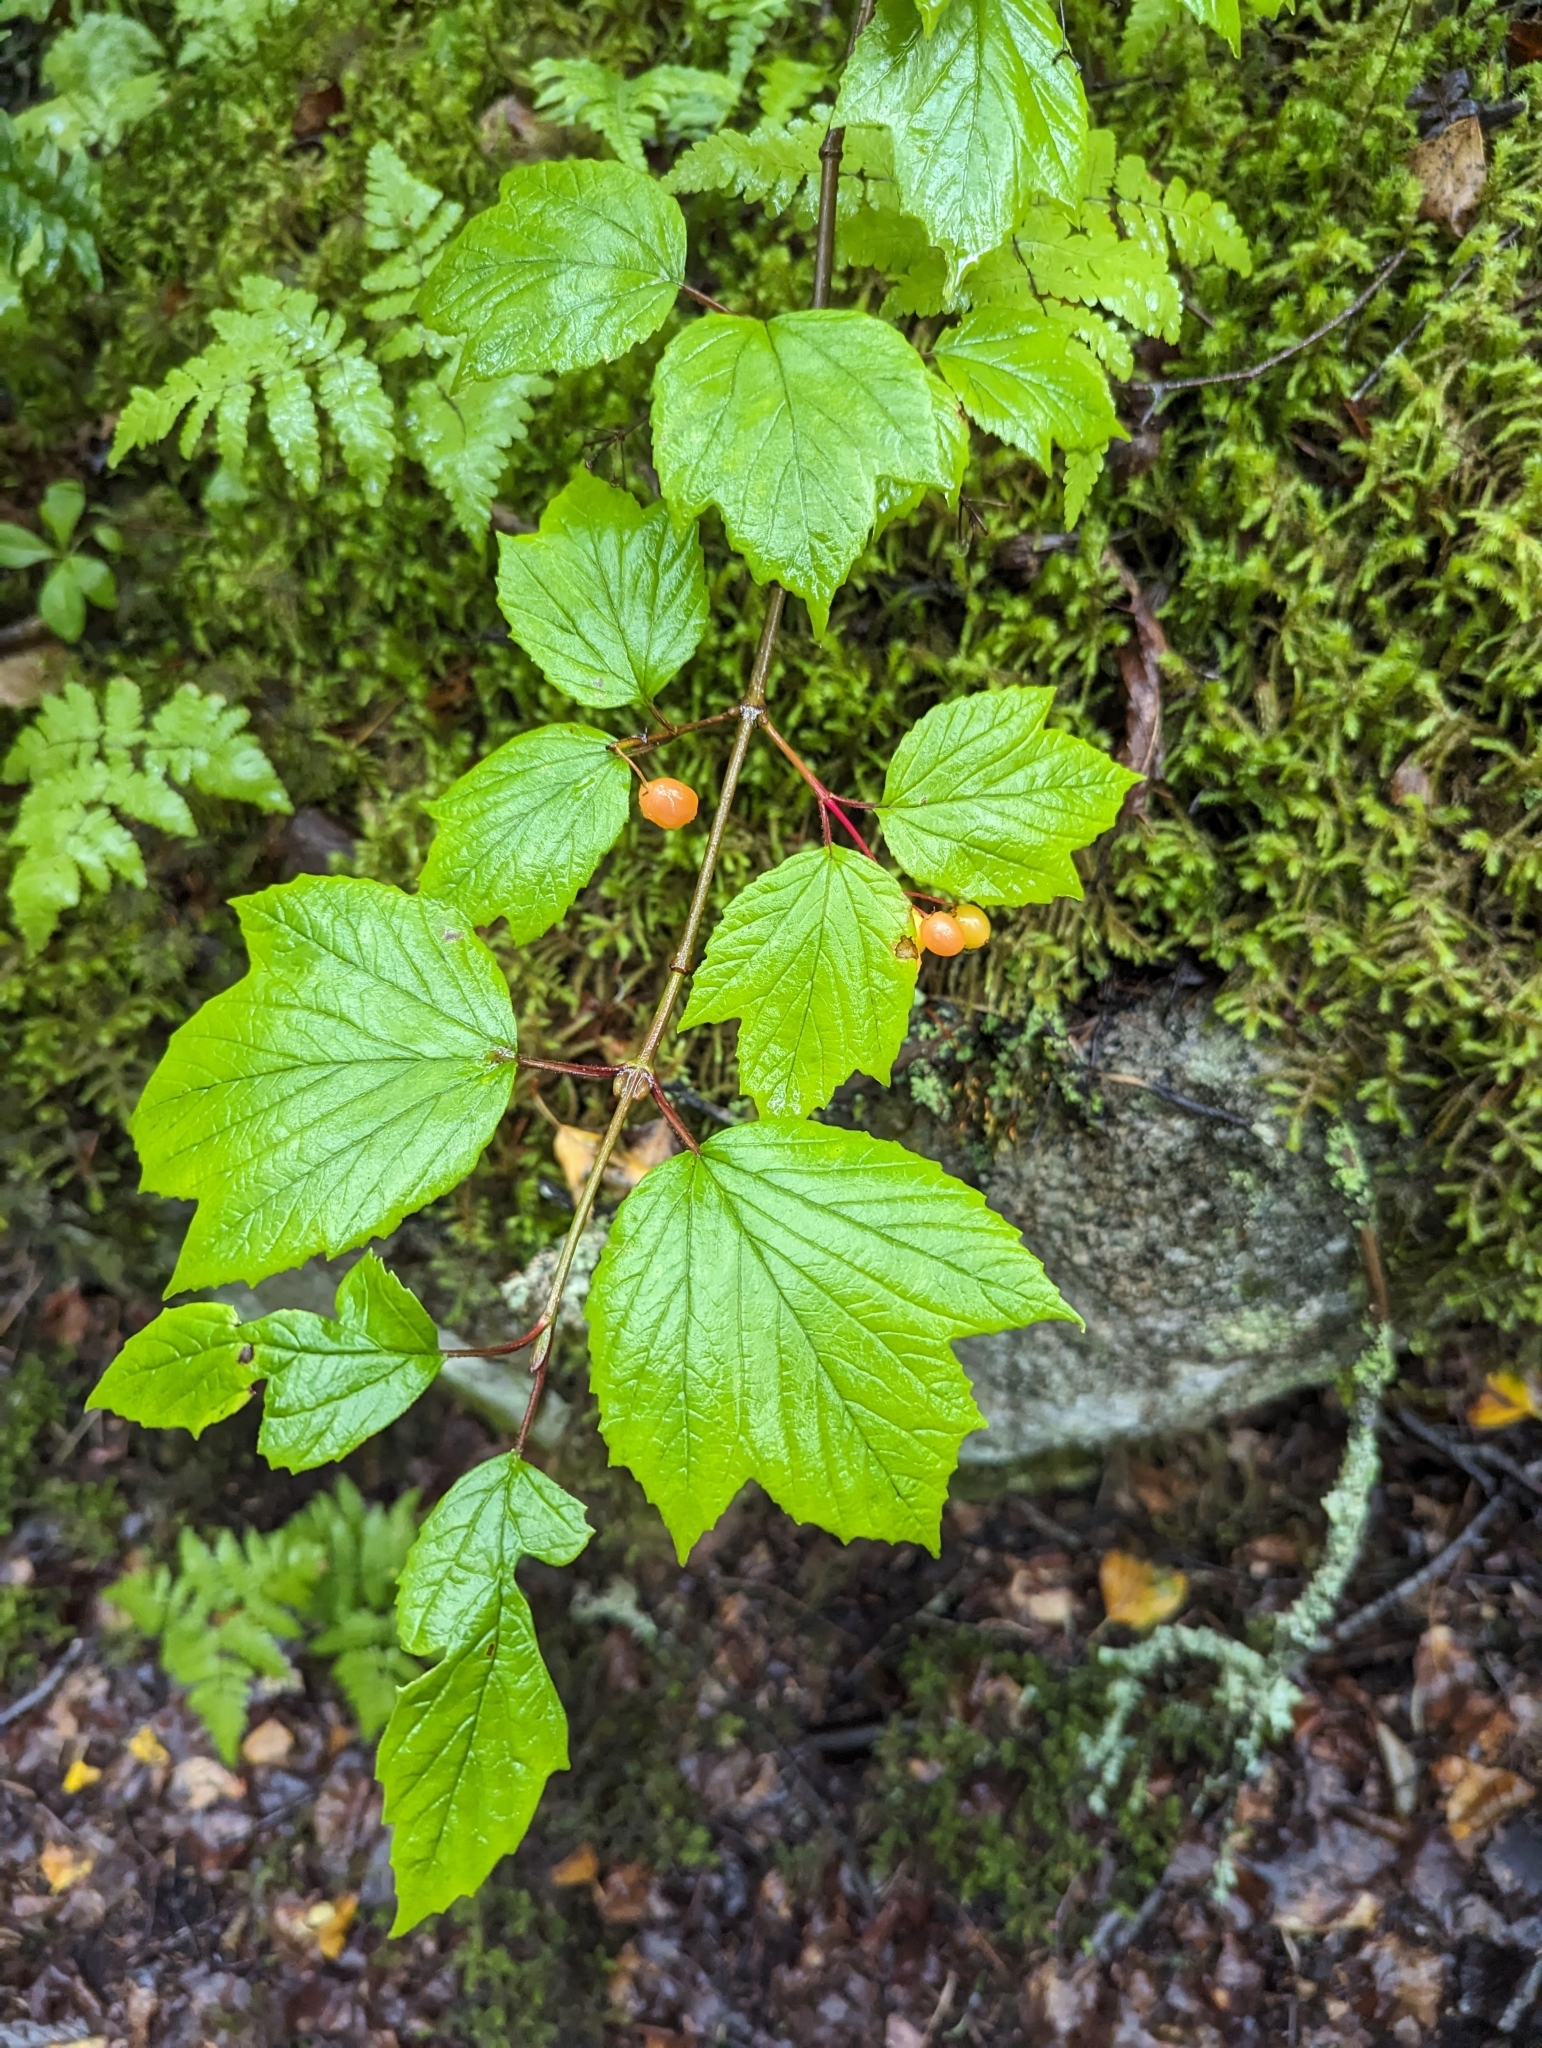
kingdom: Plantae
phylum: Tracheophyta
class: Magnoliopsida
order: Dipsacales
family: Viburnaceae
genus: Viburnum
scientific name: Viburnum edule
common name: Mooseberry
